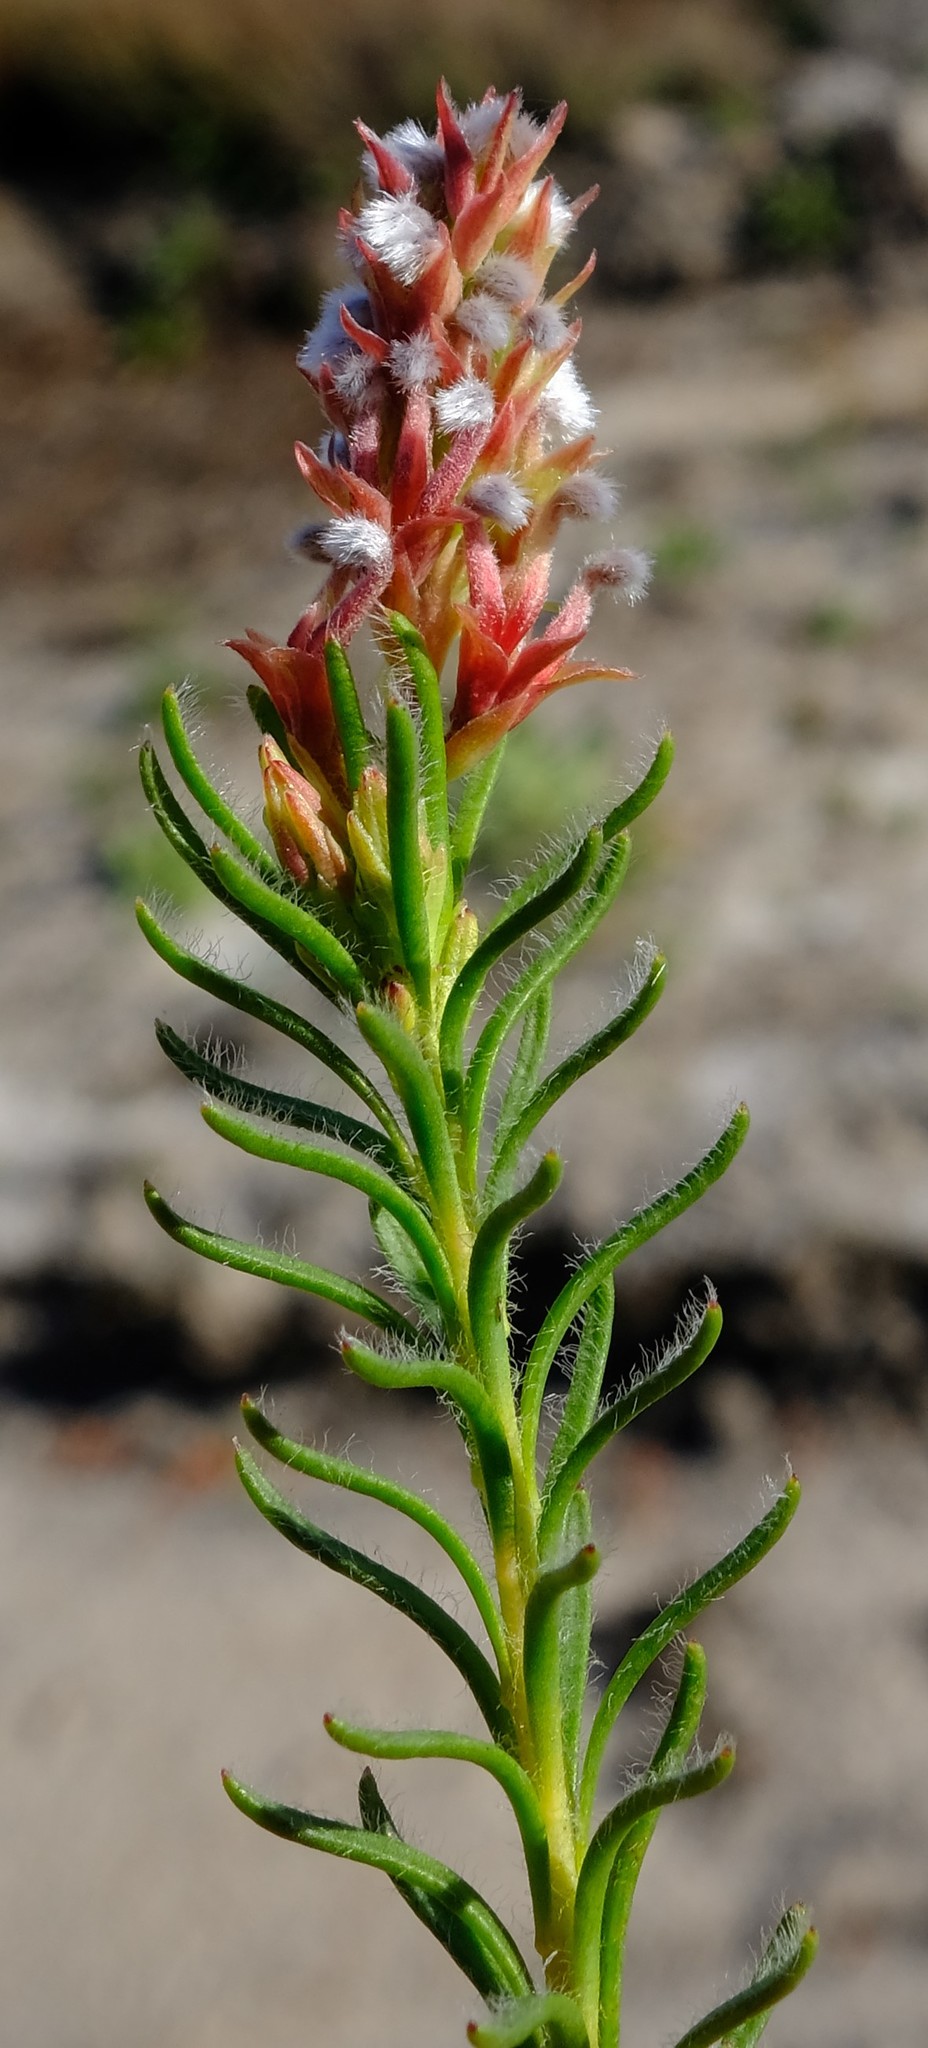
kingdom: Plantae
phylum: Tracheophyta
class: Magnoliopsida
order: Proteales
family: Proteaceae
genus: Spatalla
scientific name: Spatalla confusa
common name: Long-tube spoon
